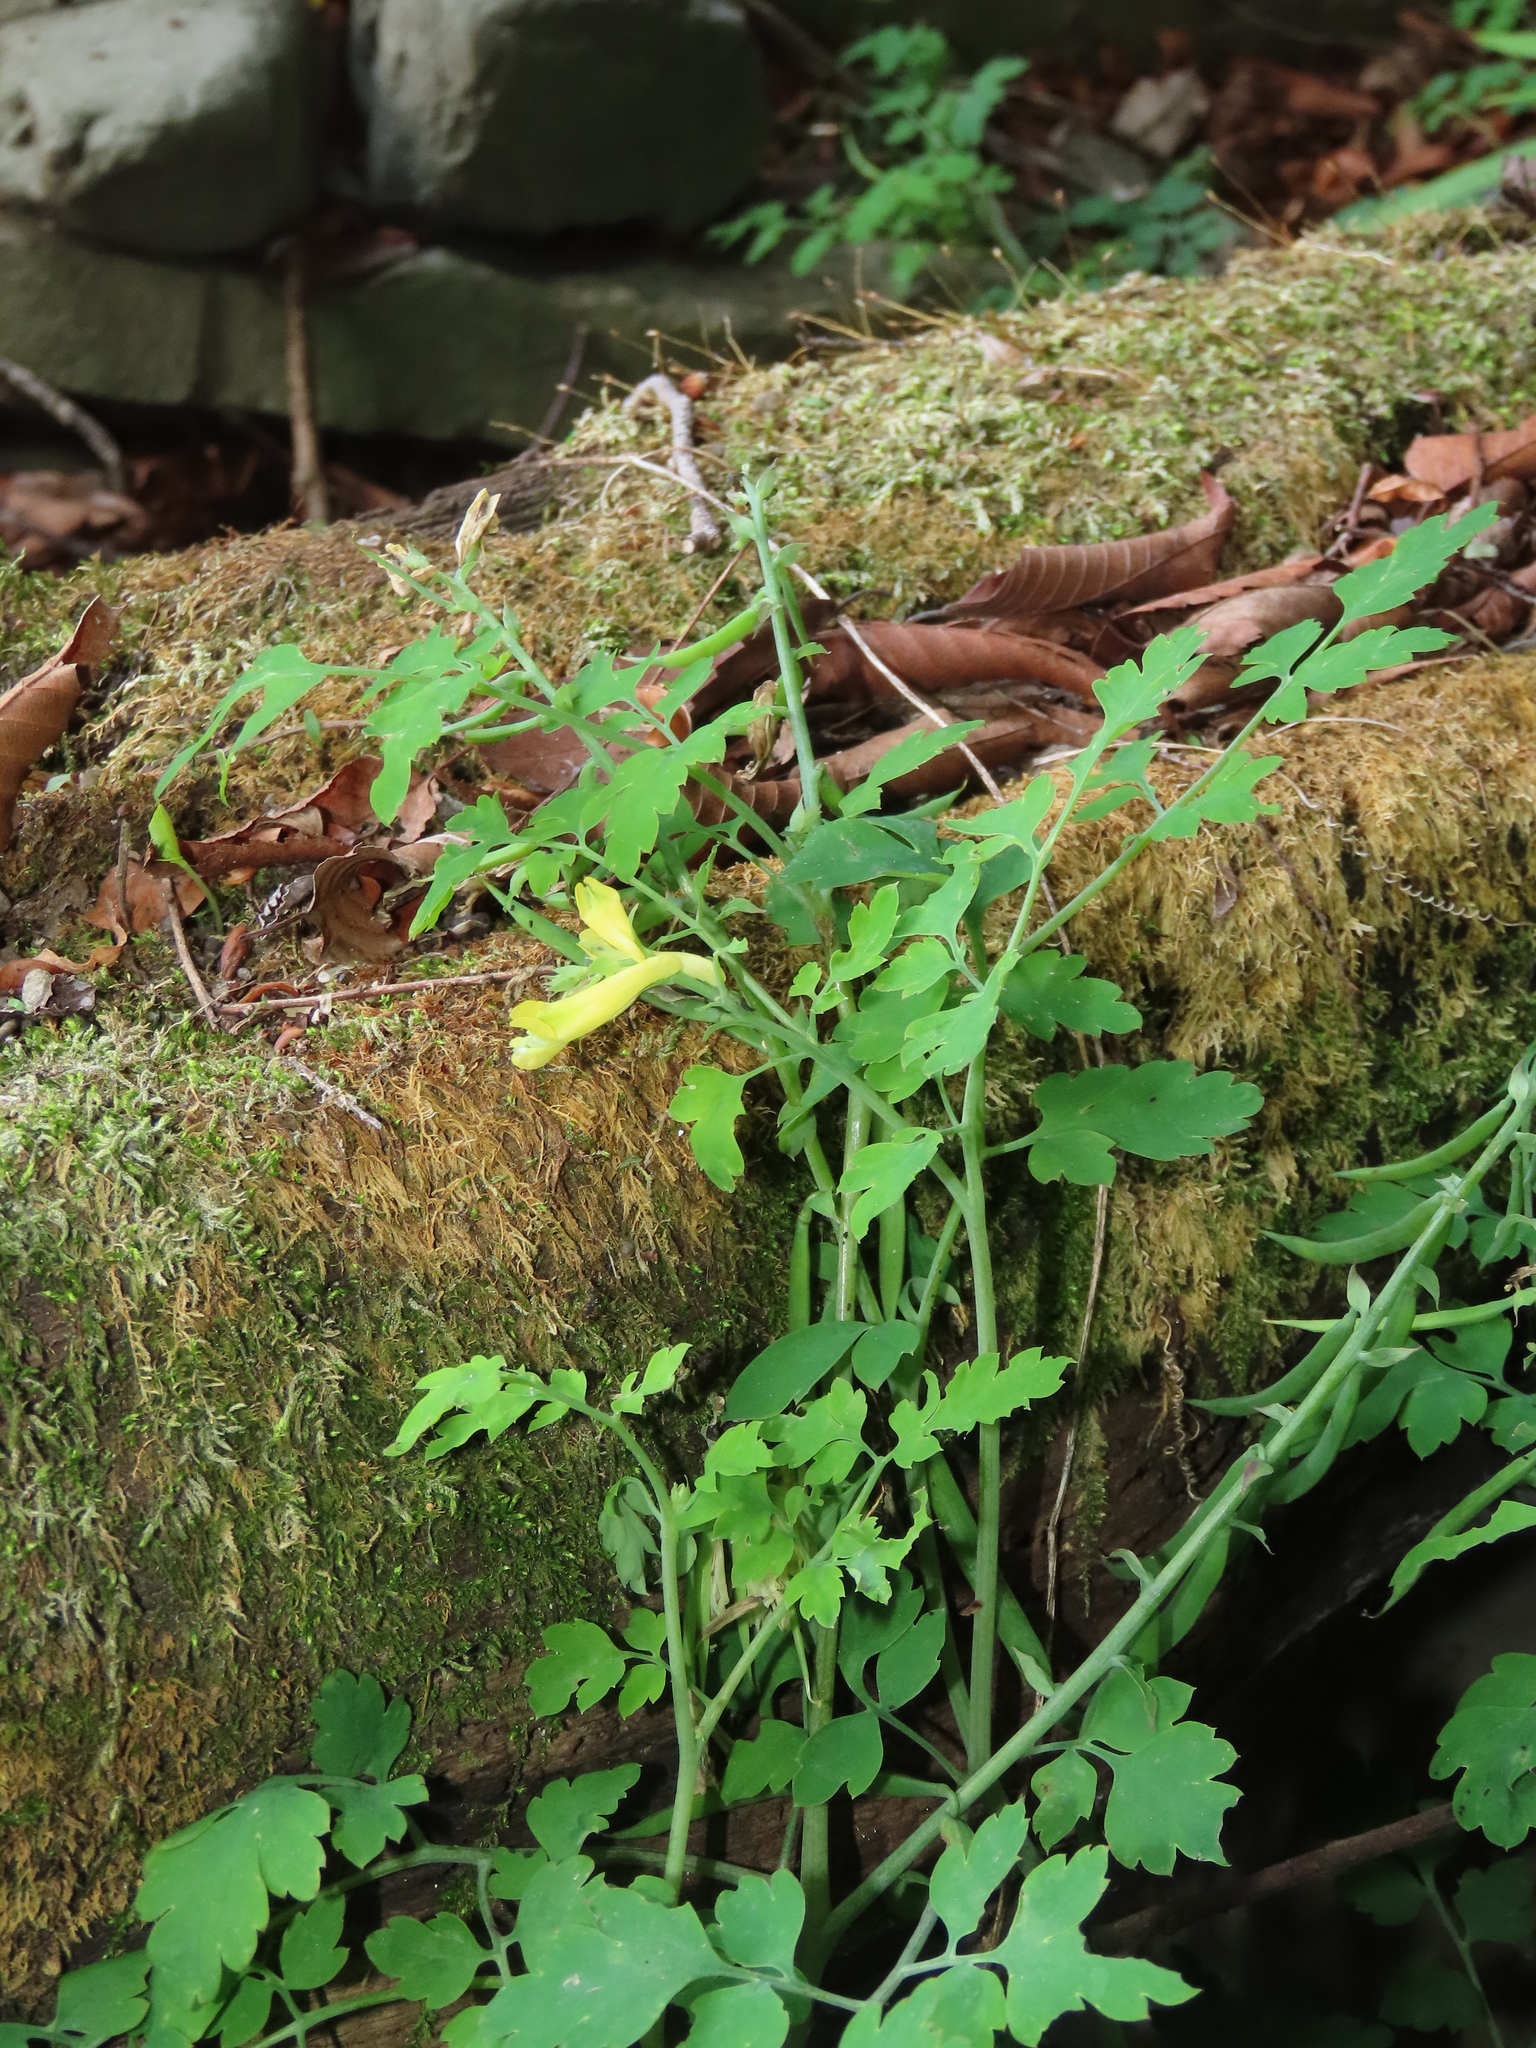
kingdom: Plantae
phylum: Tracheophyta
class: Magnoliopsida
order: Ranunculales
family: Papaveraceae
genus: Corydalis
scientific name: Corydalis balansae
